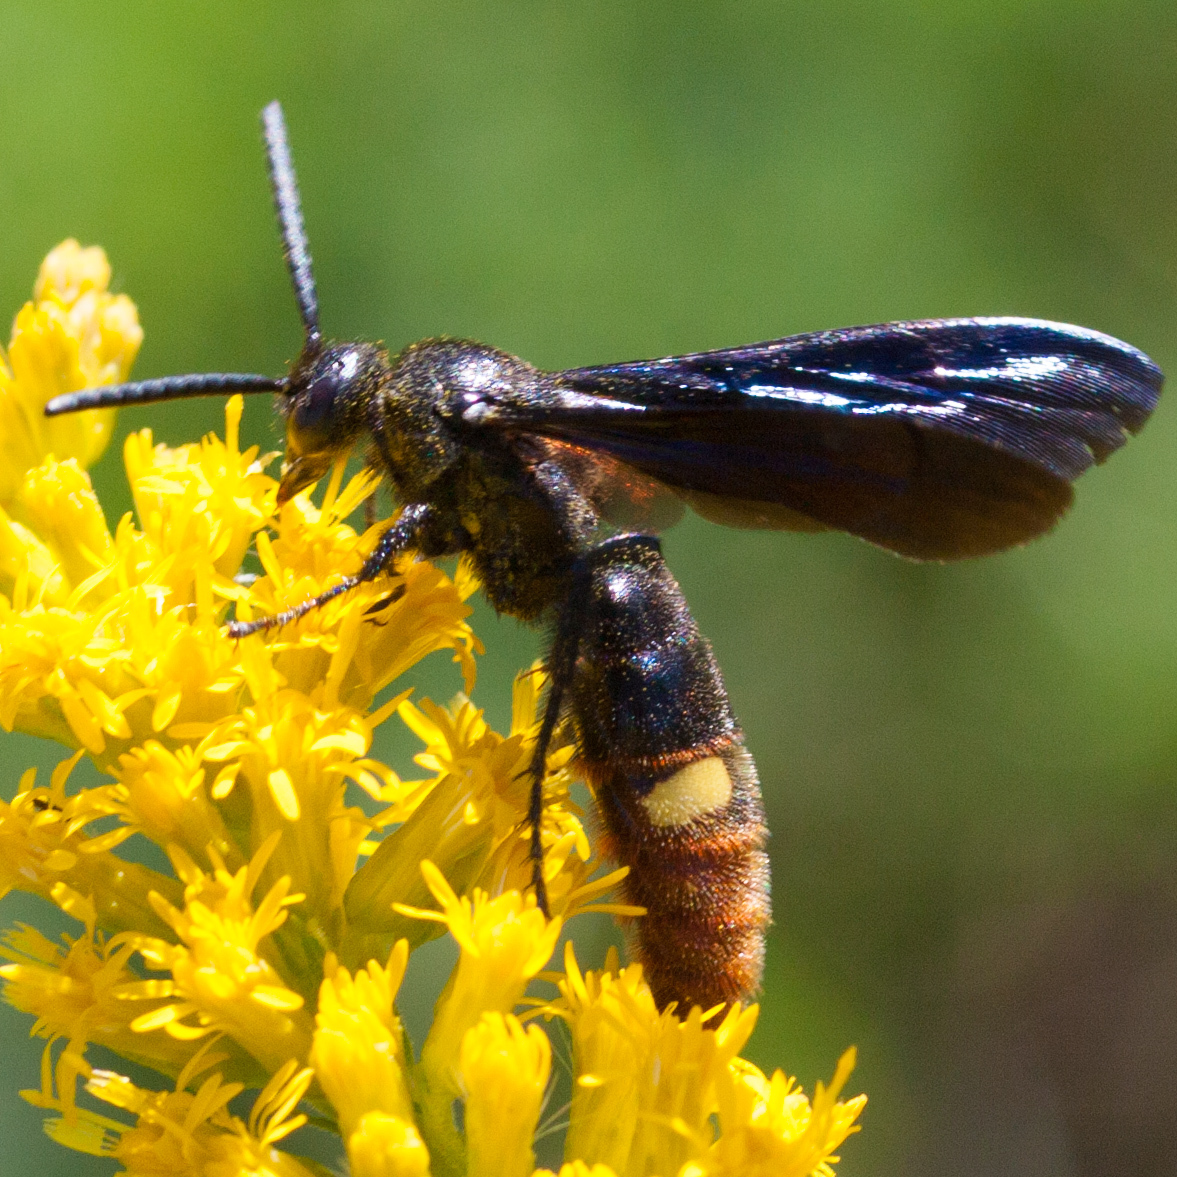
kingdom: Animalia
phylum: Arthropoda
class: Insecta
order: Hymenoptera
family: Scoliidae
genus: Scolia
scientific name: Scolia dubia
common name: Blue-winged scoliid wasp
